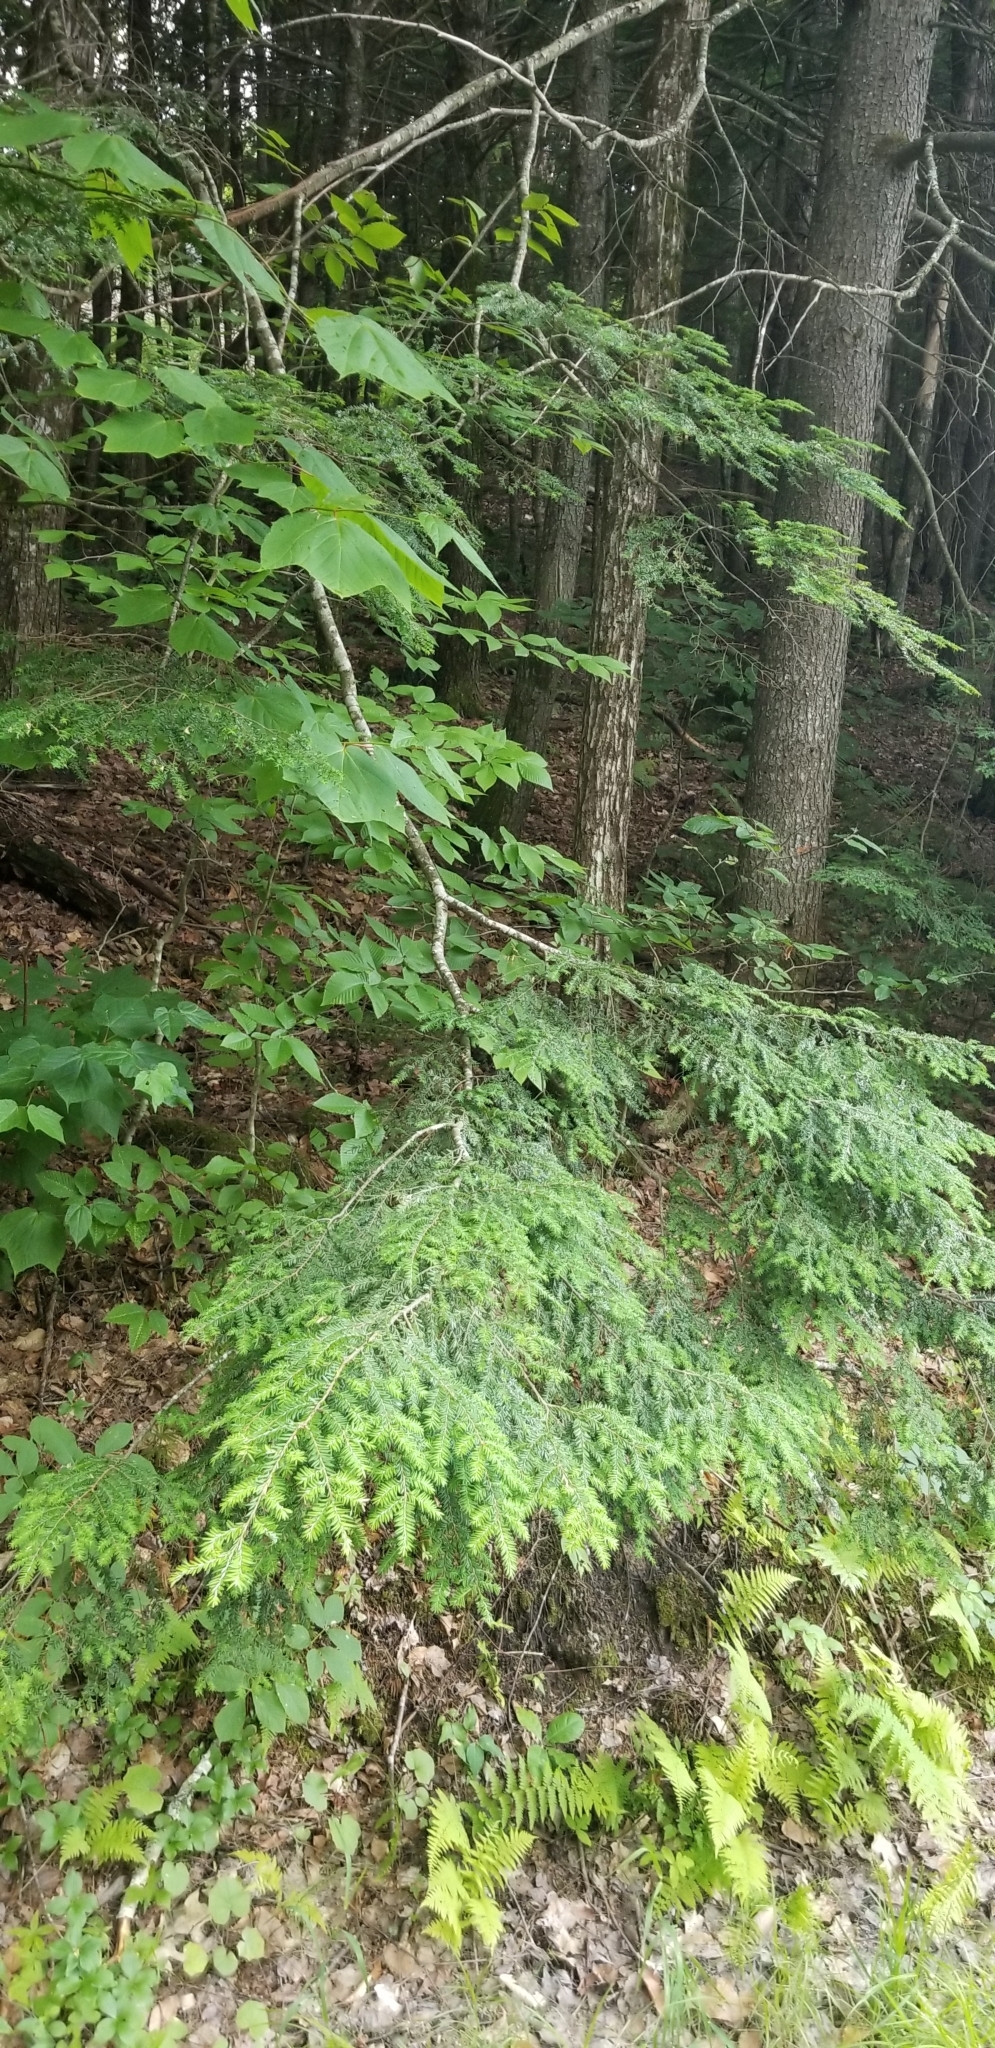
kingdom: Plantae
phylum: Tracheophyta
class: Pinopsida
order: Pinales
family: Pinaceae
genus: Tsuga
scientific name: Tsuga canadensis
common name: Eastern hemlock
